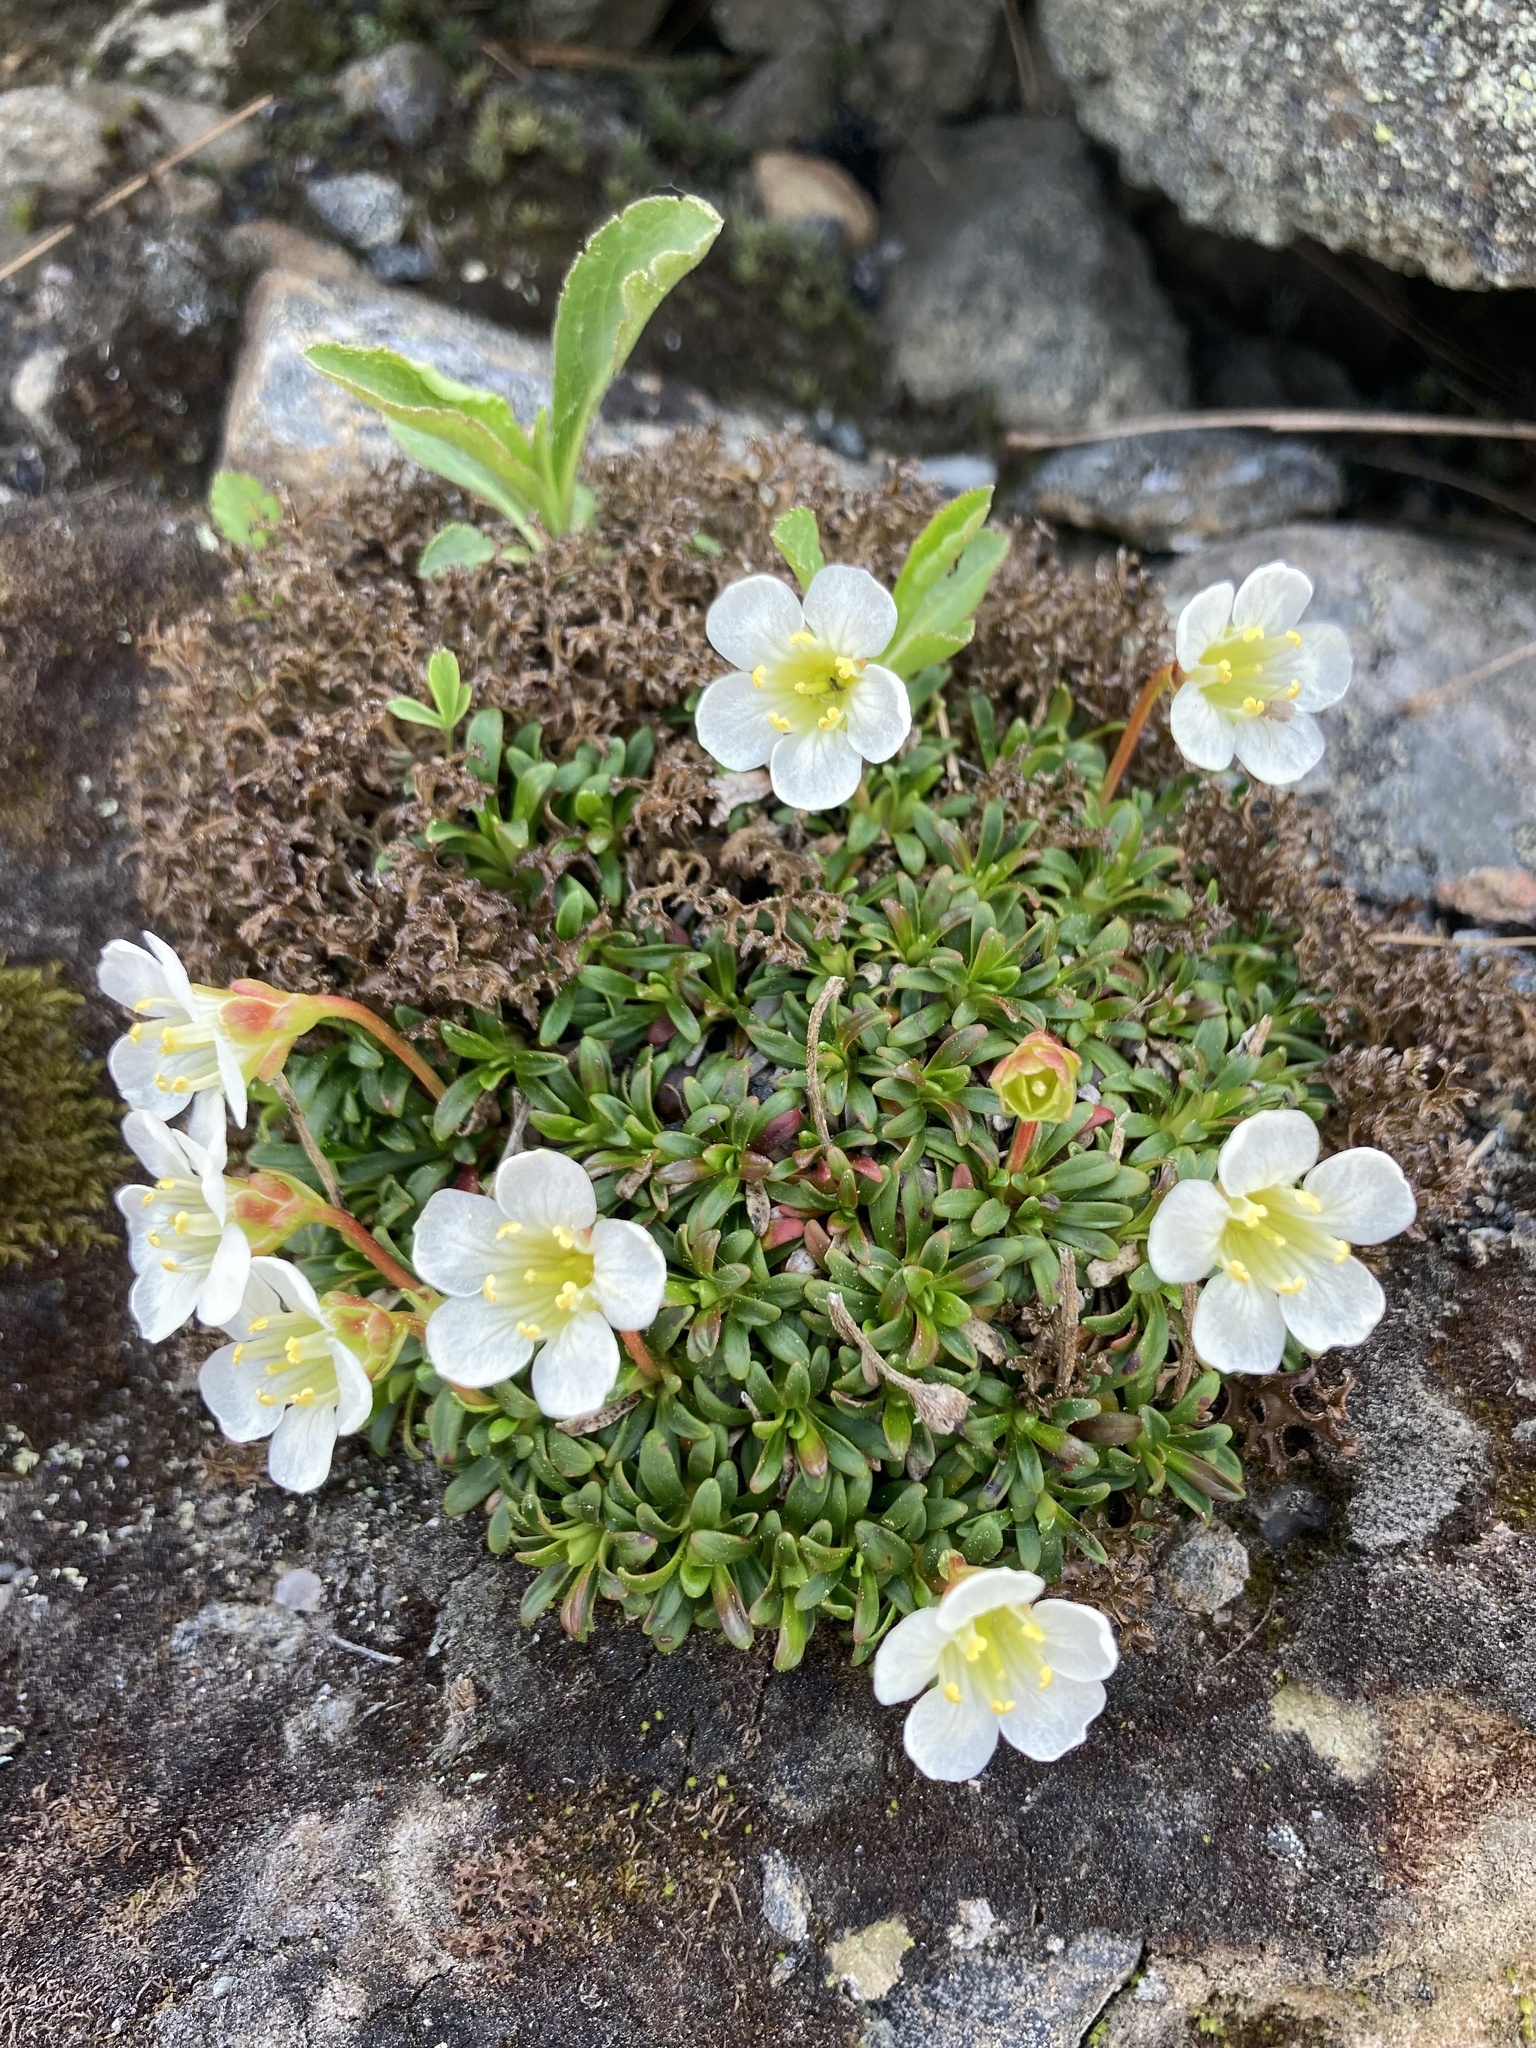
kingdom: Plantae
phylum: Tracheophyta
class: Magnoliopsida
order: Ericales
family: Diapensiaceae
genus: Diapensia
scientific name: Diapensia lapponica
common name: Diapensia
